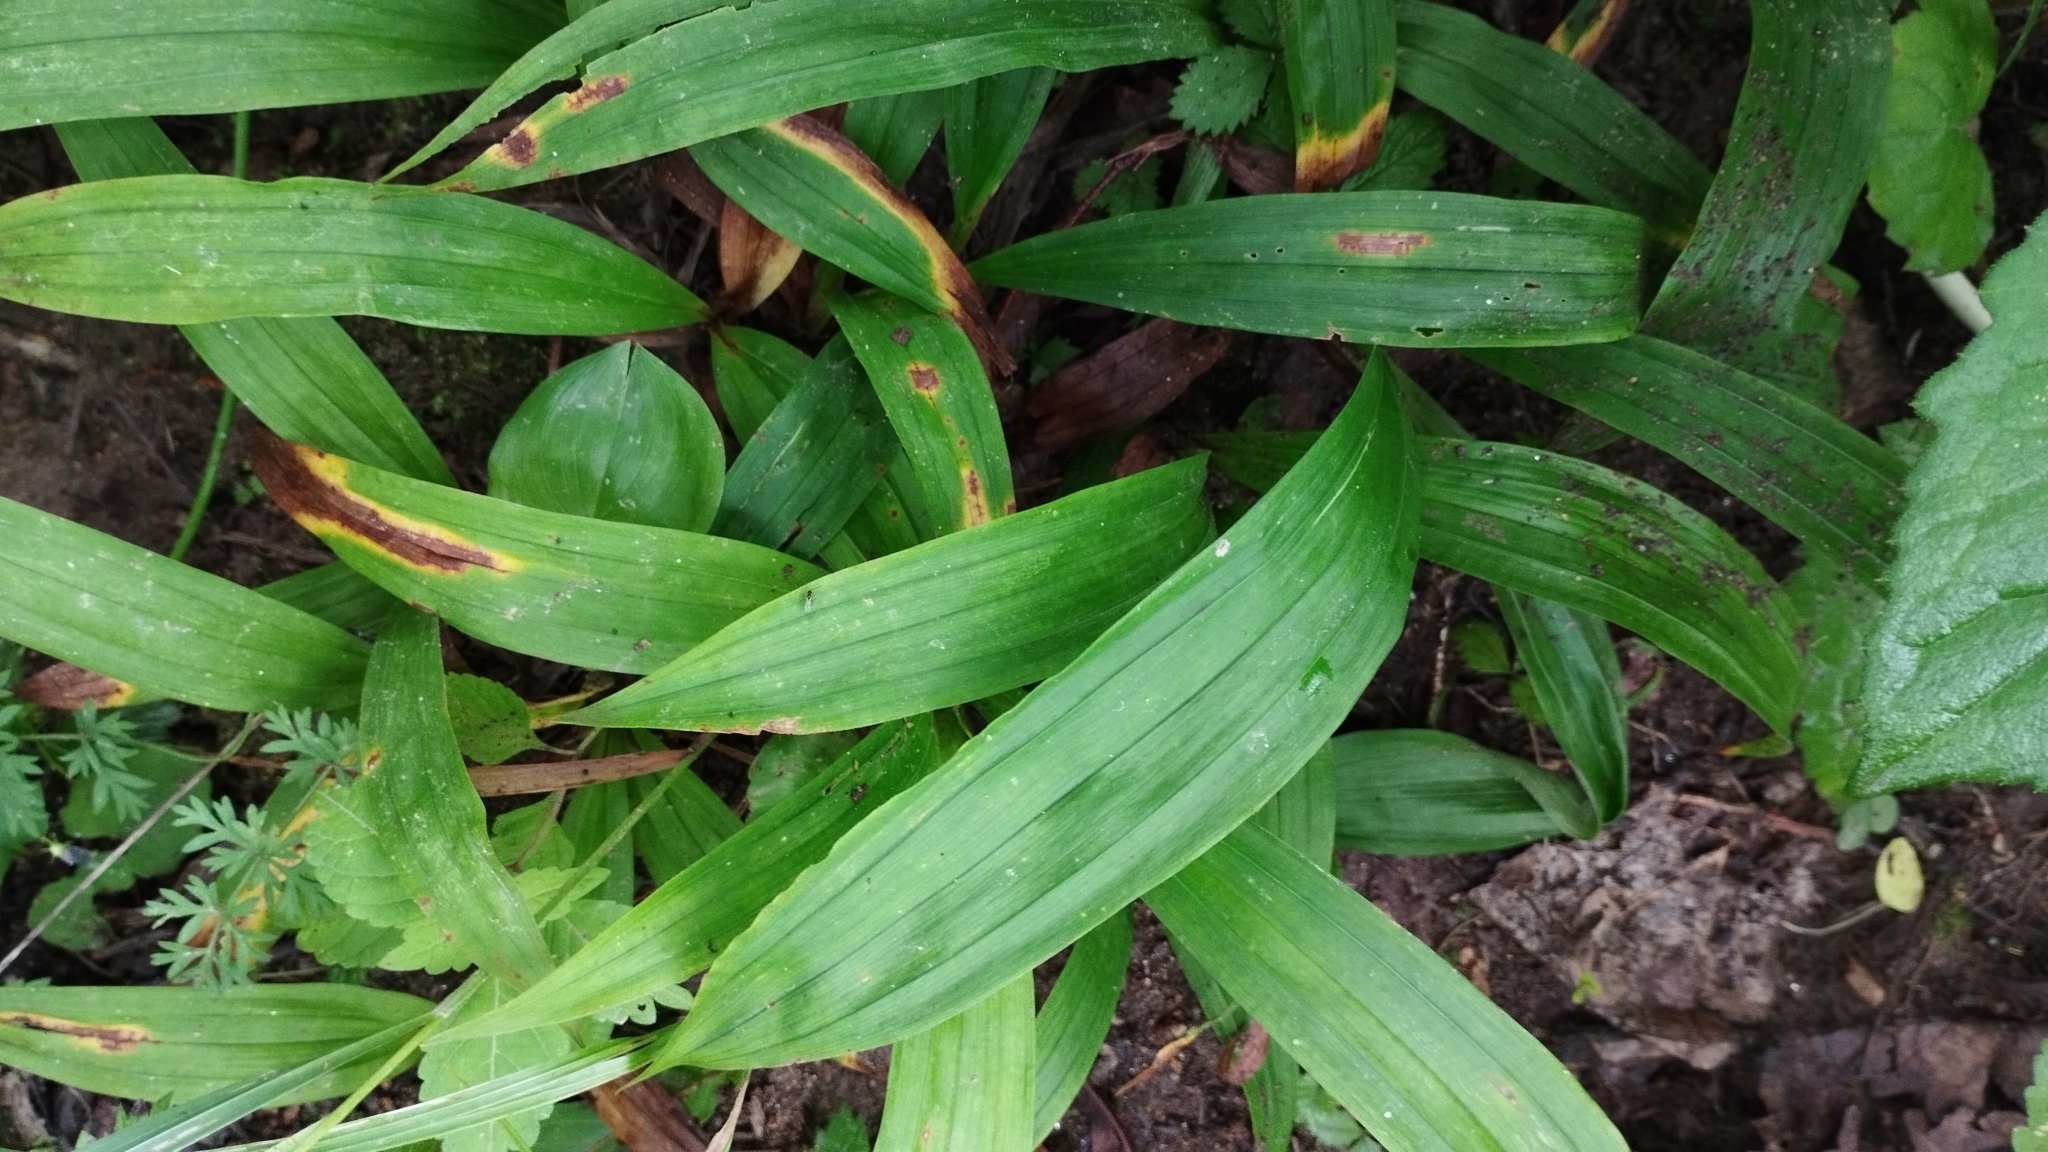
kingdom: Plantae
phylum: Tracheophyta
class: Liliopsida
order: Poales
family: Cyperaceae
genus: Carex
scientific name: Carex siderosticta
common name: Broadleaf sedge
